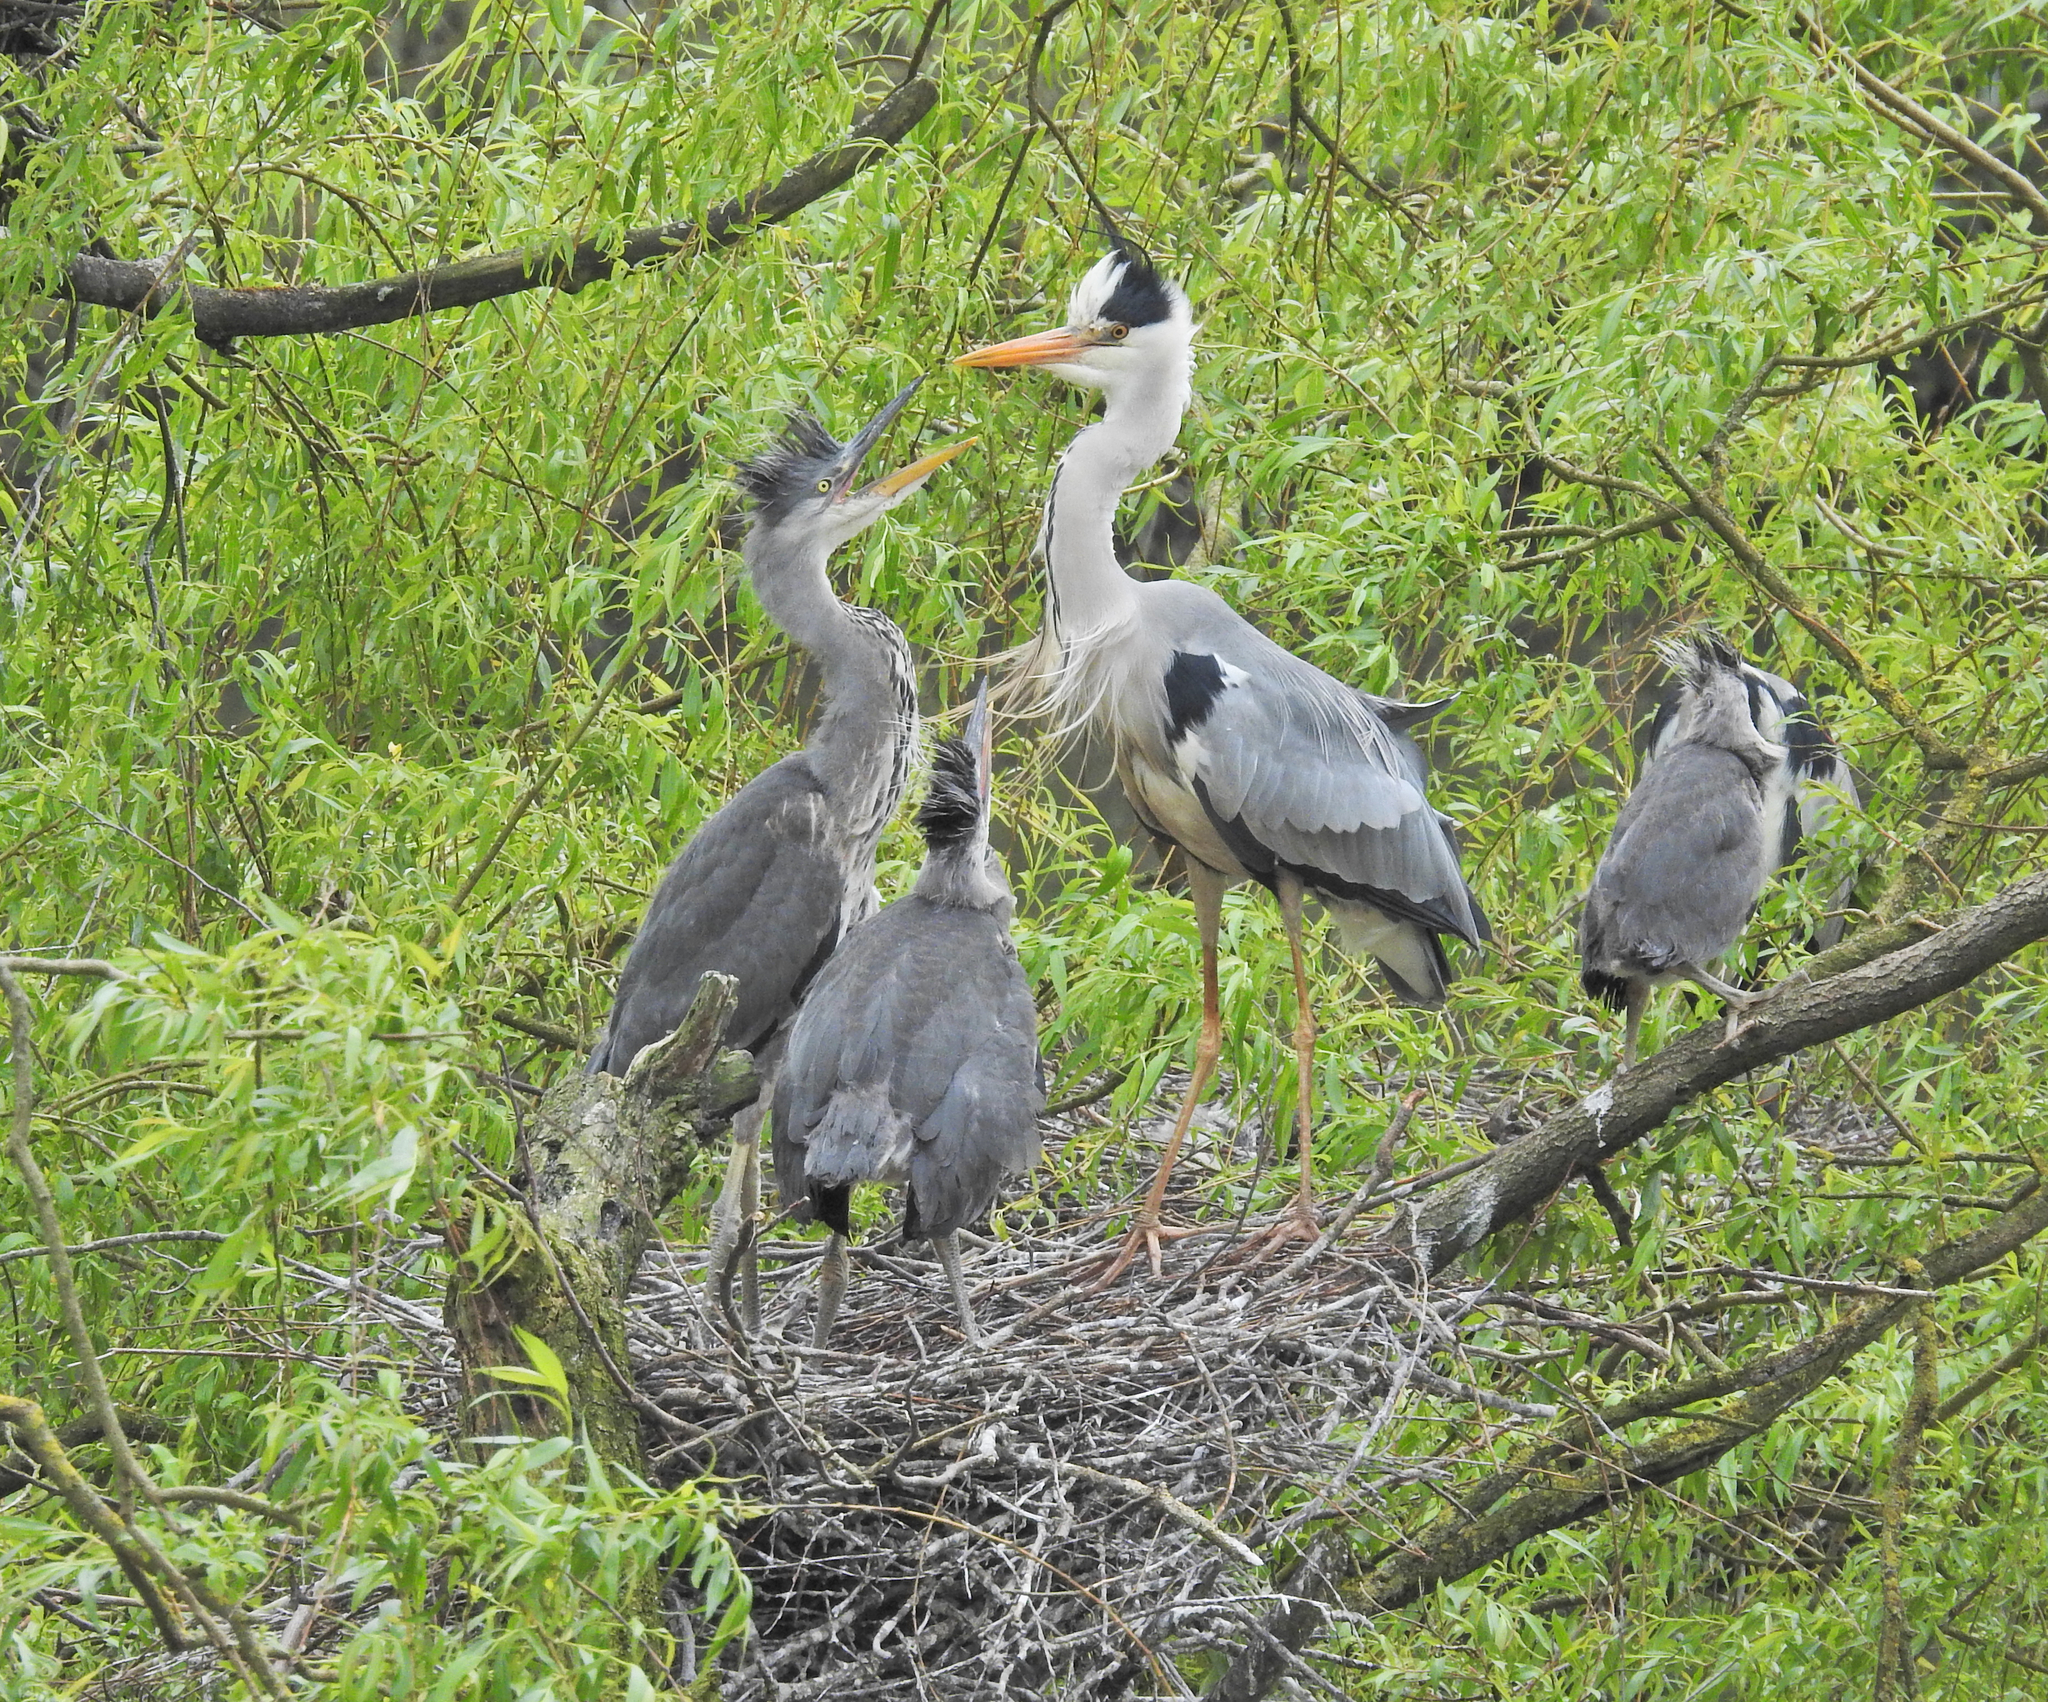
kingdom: Animalia
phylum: Chordata
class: Aves
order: Pelecaniformes
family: Ardeidae
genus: Ardea
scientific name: Ardea cinerea
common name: Grey heron
